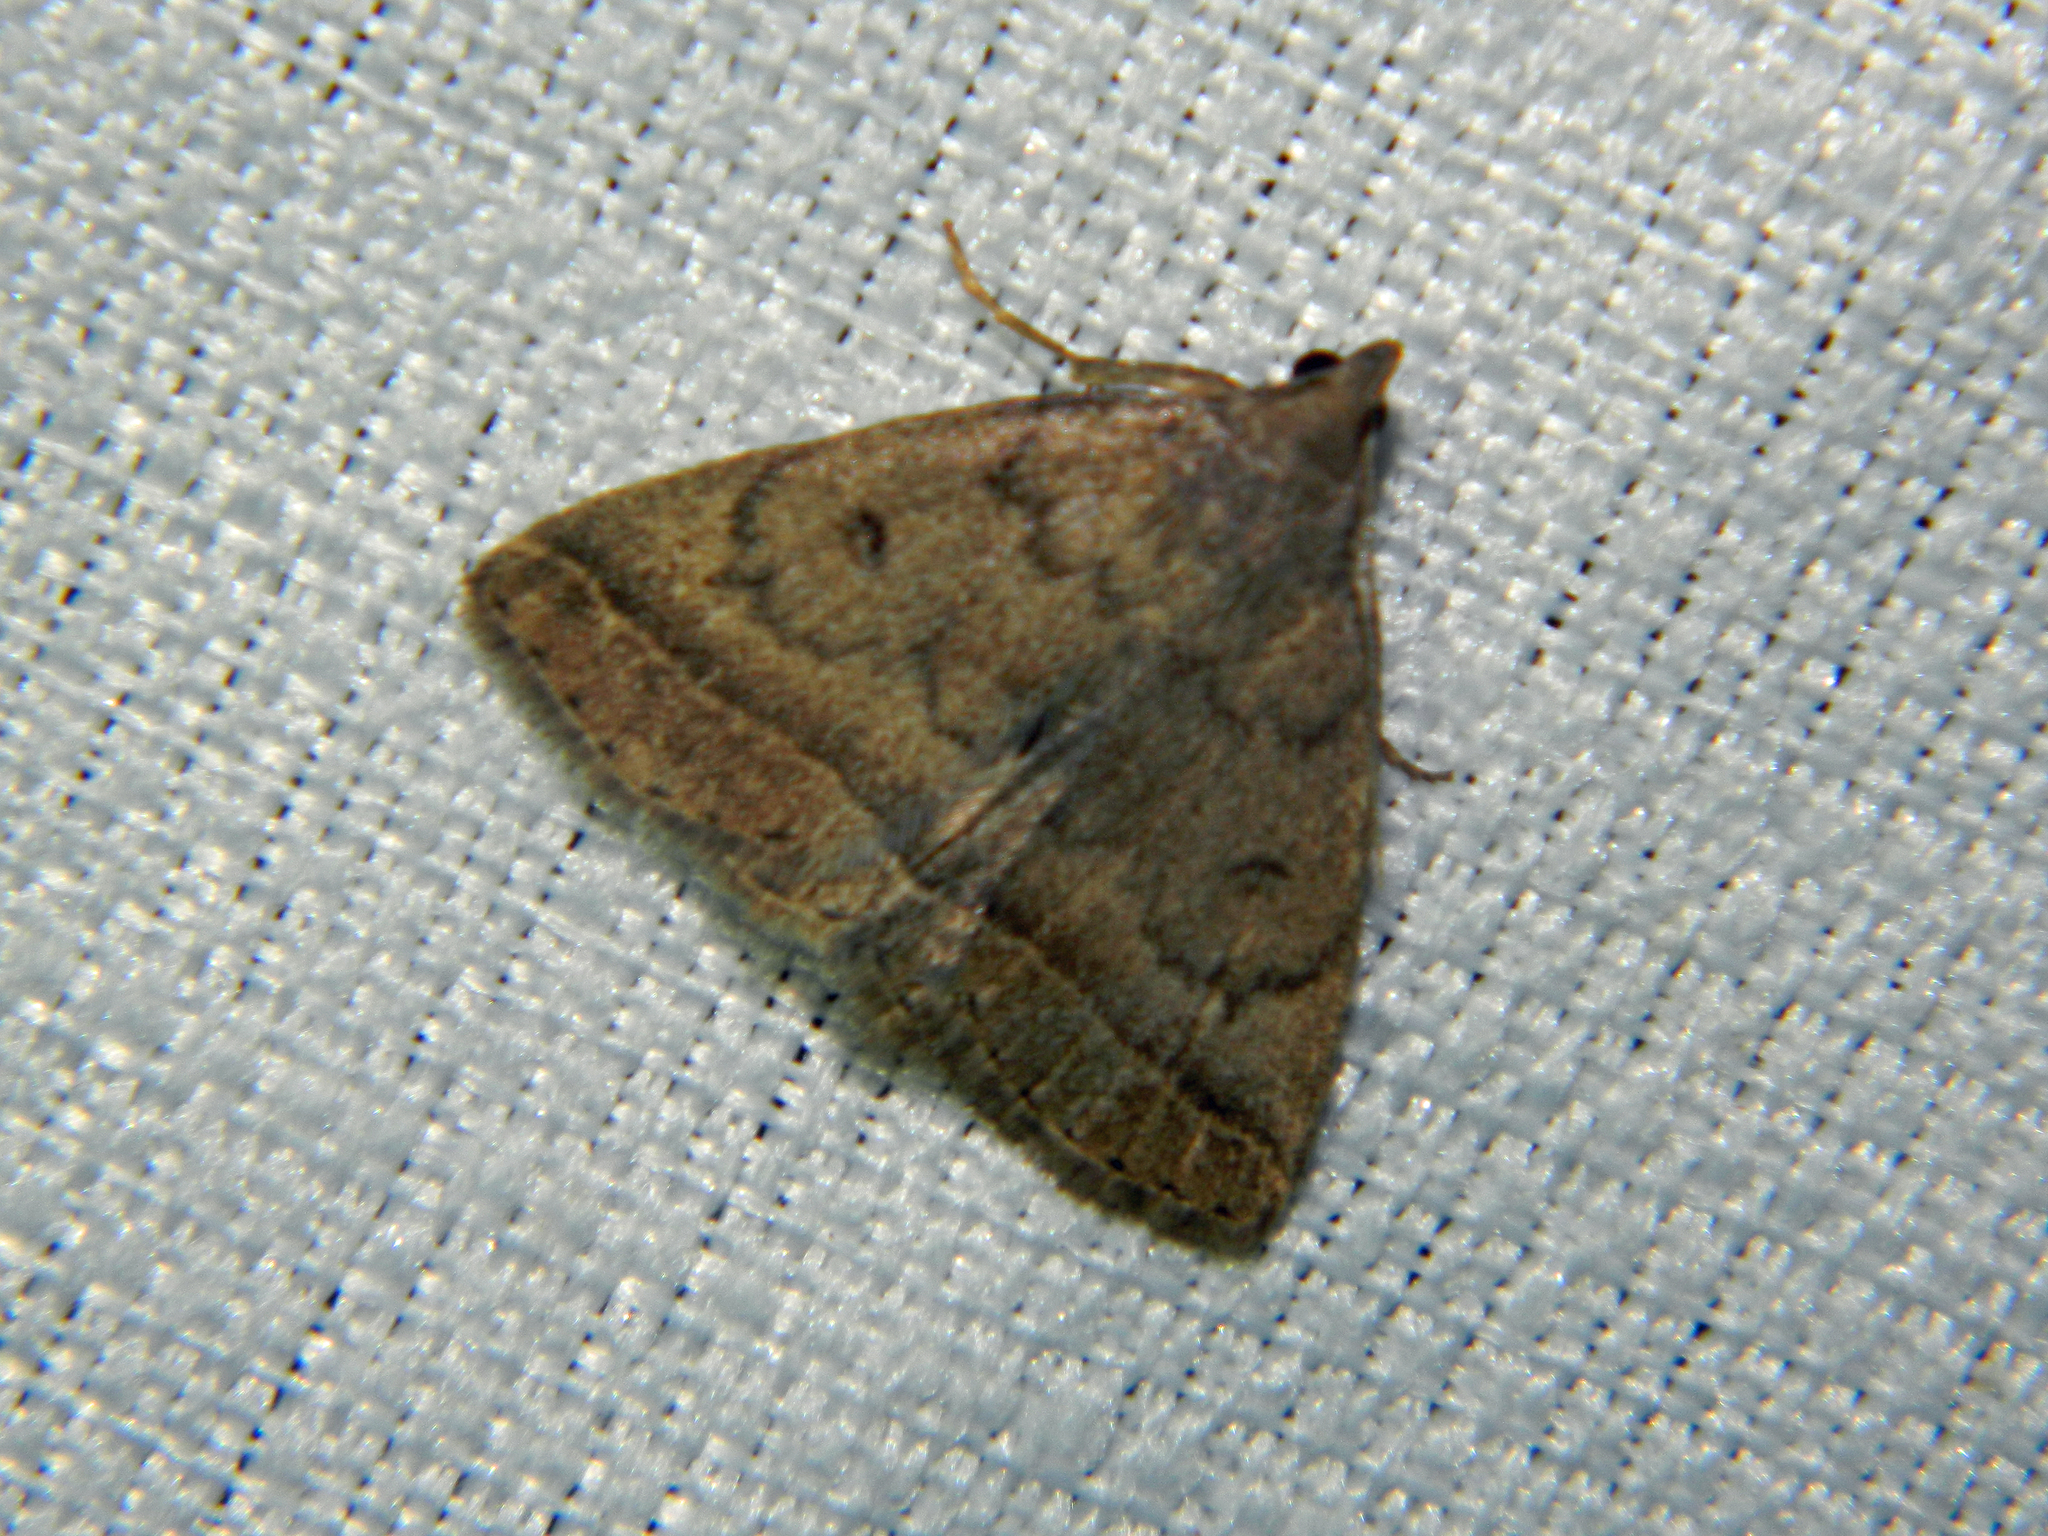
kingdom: Animalia
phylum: Arthropoda
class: Insecta
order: Lepidoptera
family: Erebidae
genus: Zanclognatha
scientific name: Zanclognatha jacchusalis
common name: Yellowish zanclognatha
